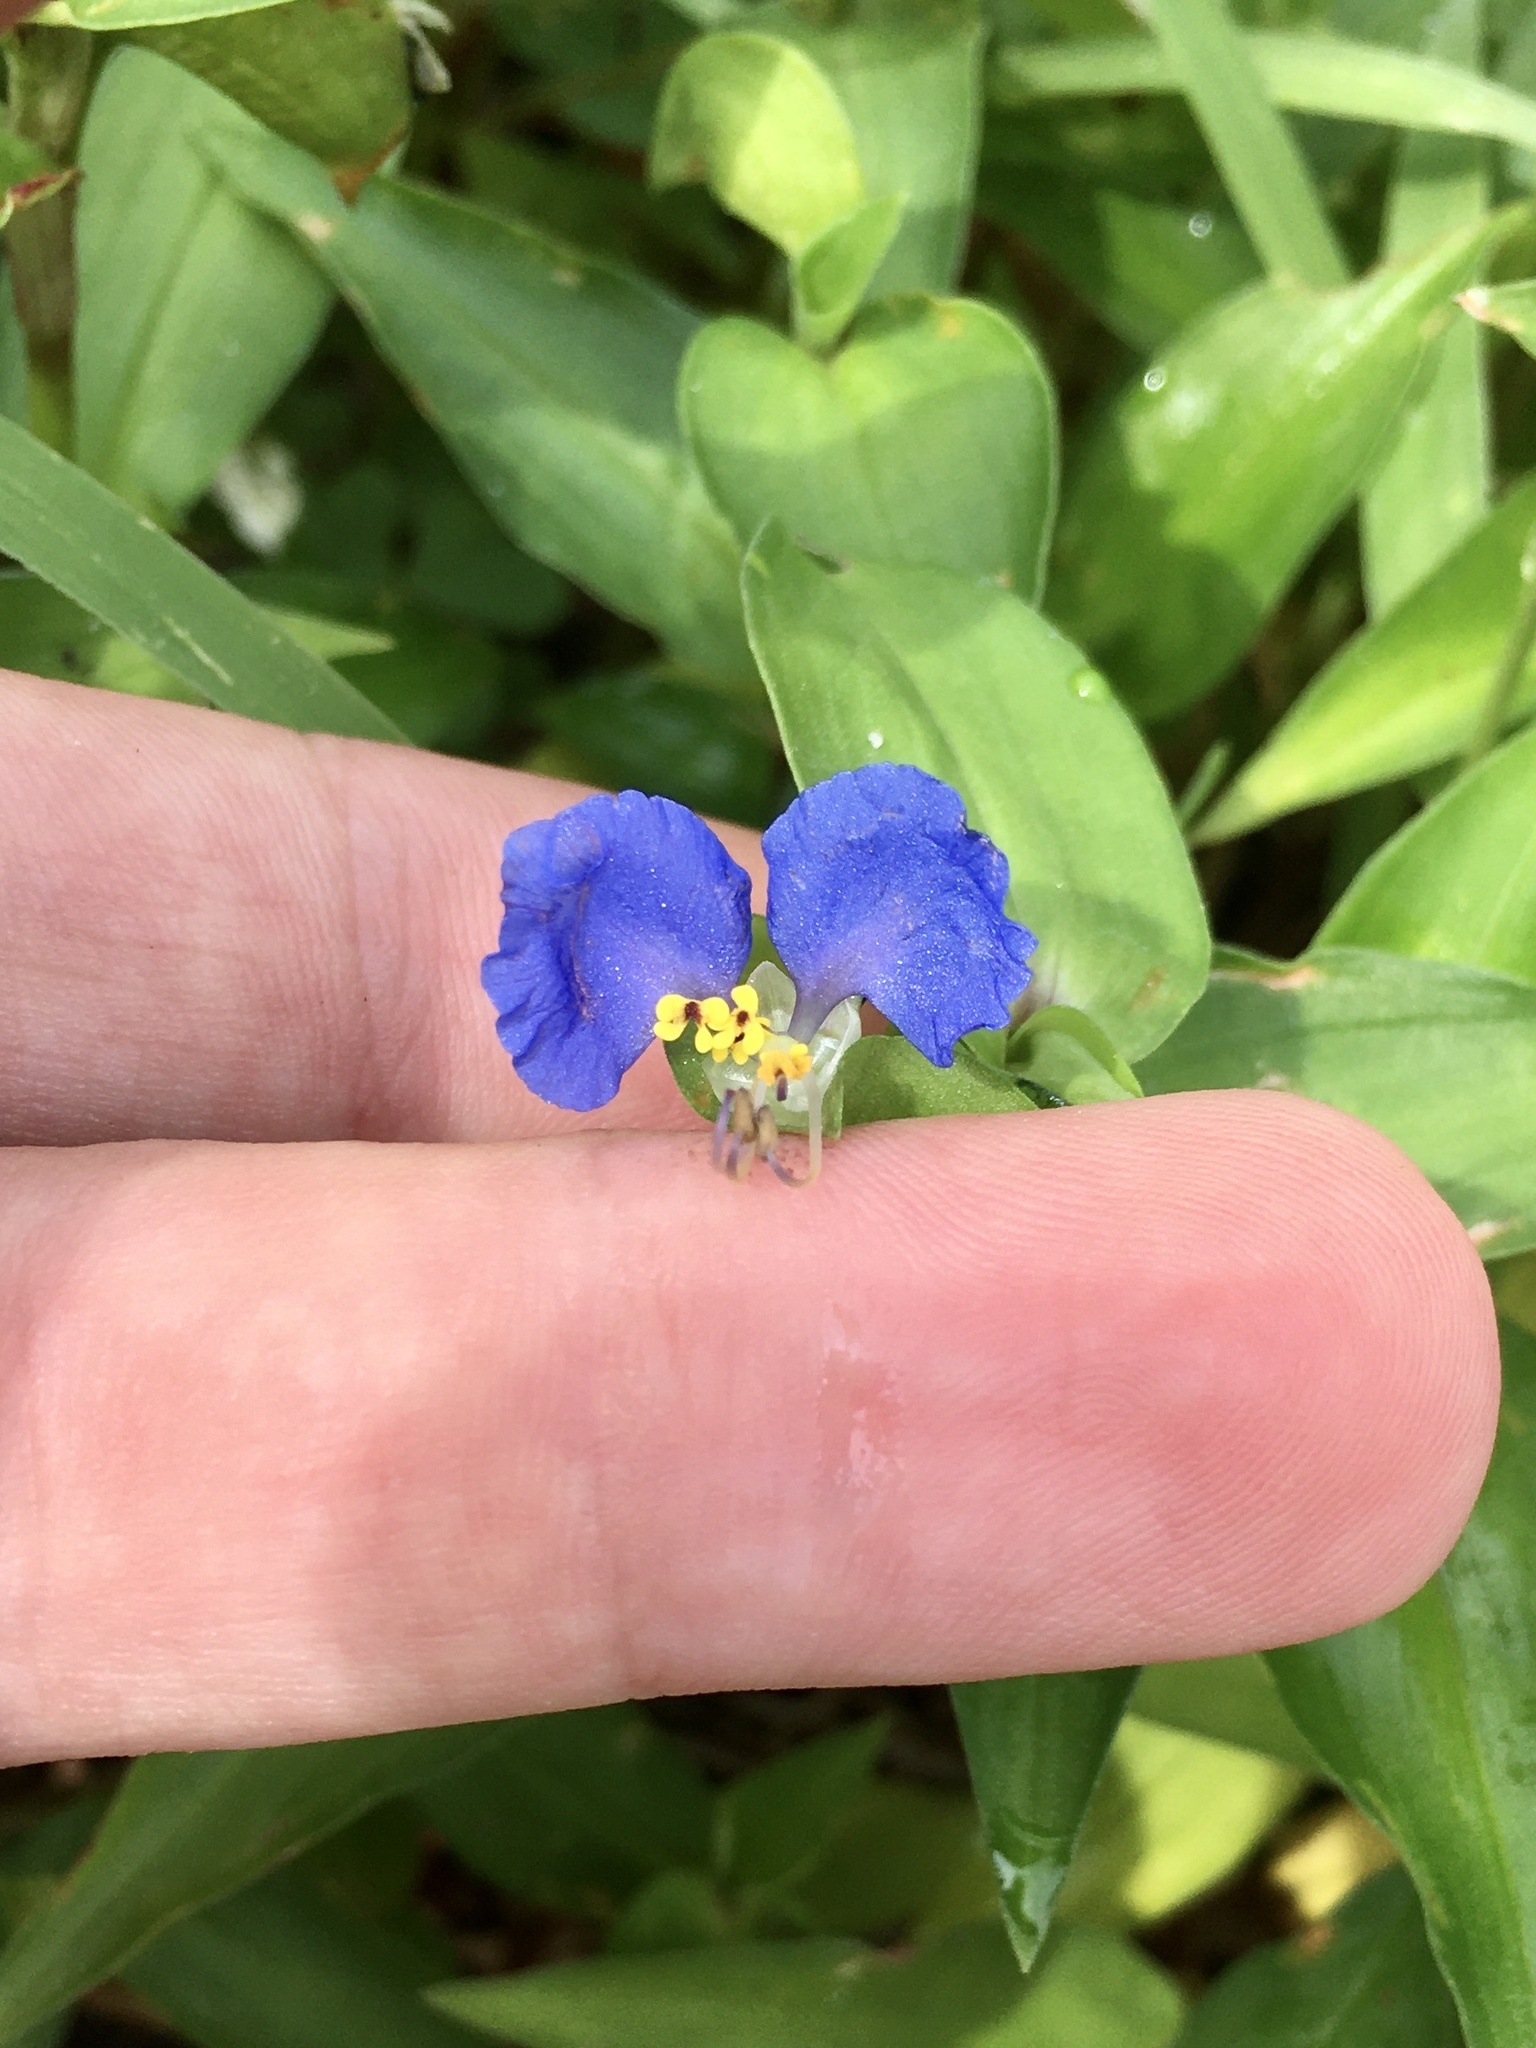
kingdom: Plantae
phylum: Tracheophyta
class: Liliopsida
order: Commelinales
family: Commelinaceae
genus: Commelina
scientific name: Commelina communis
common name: Asiatic dayflower
